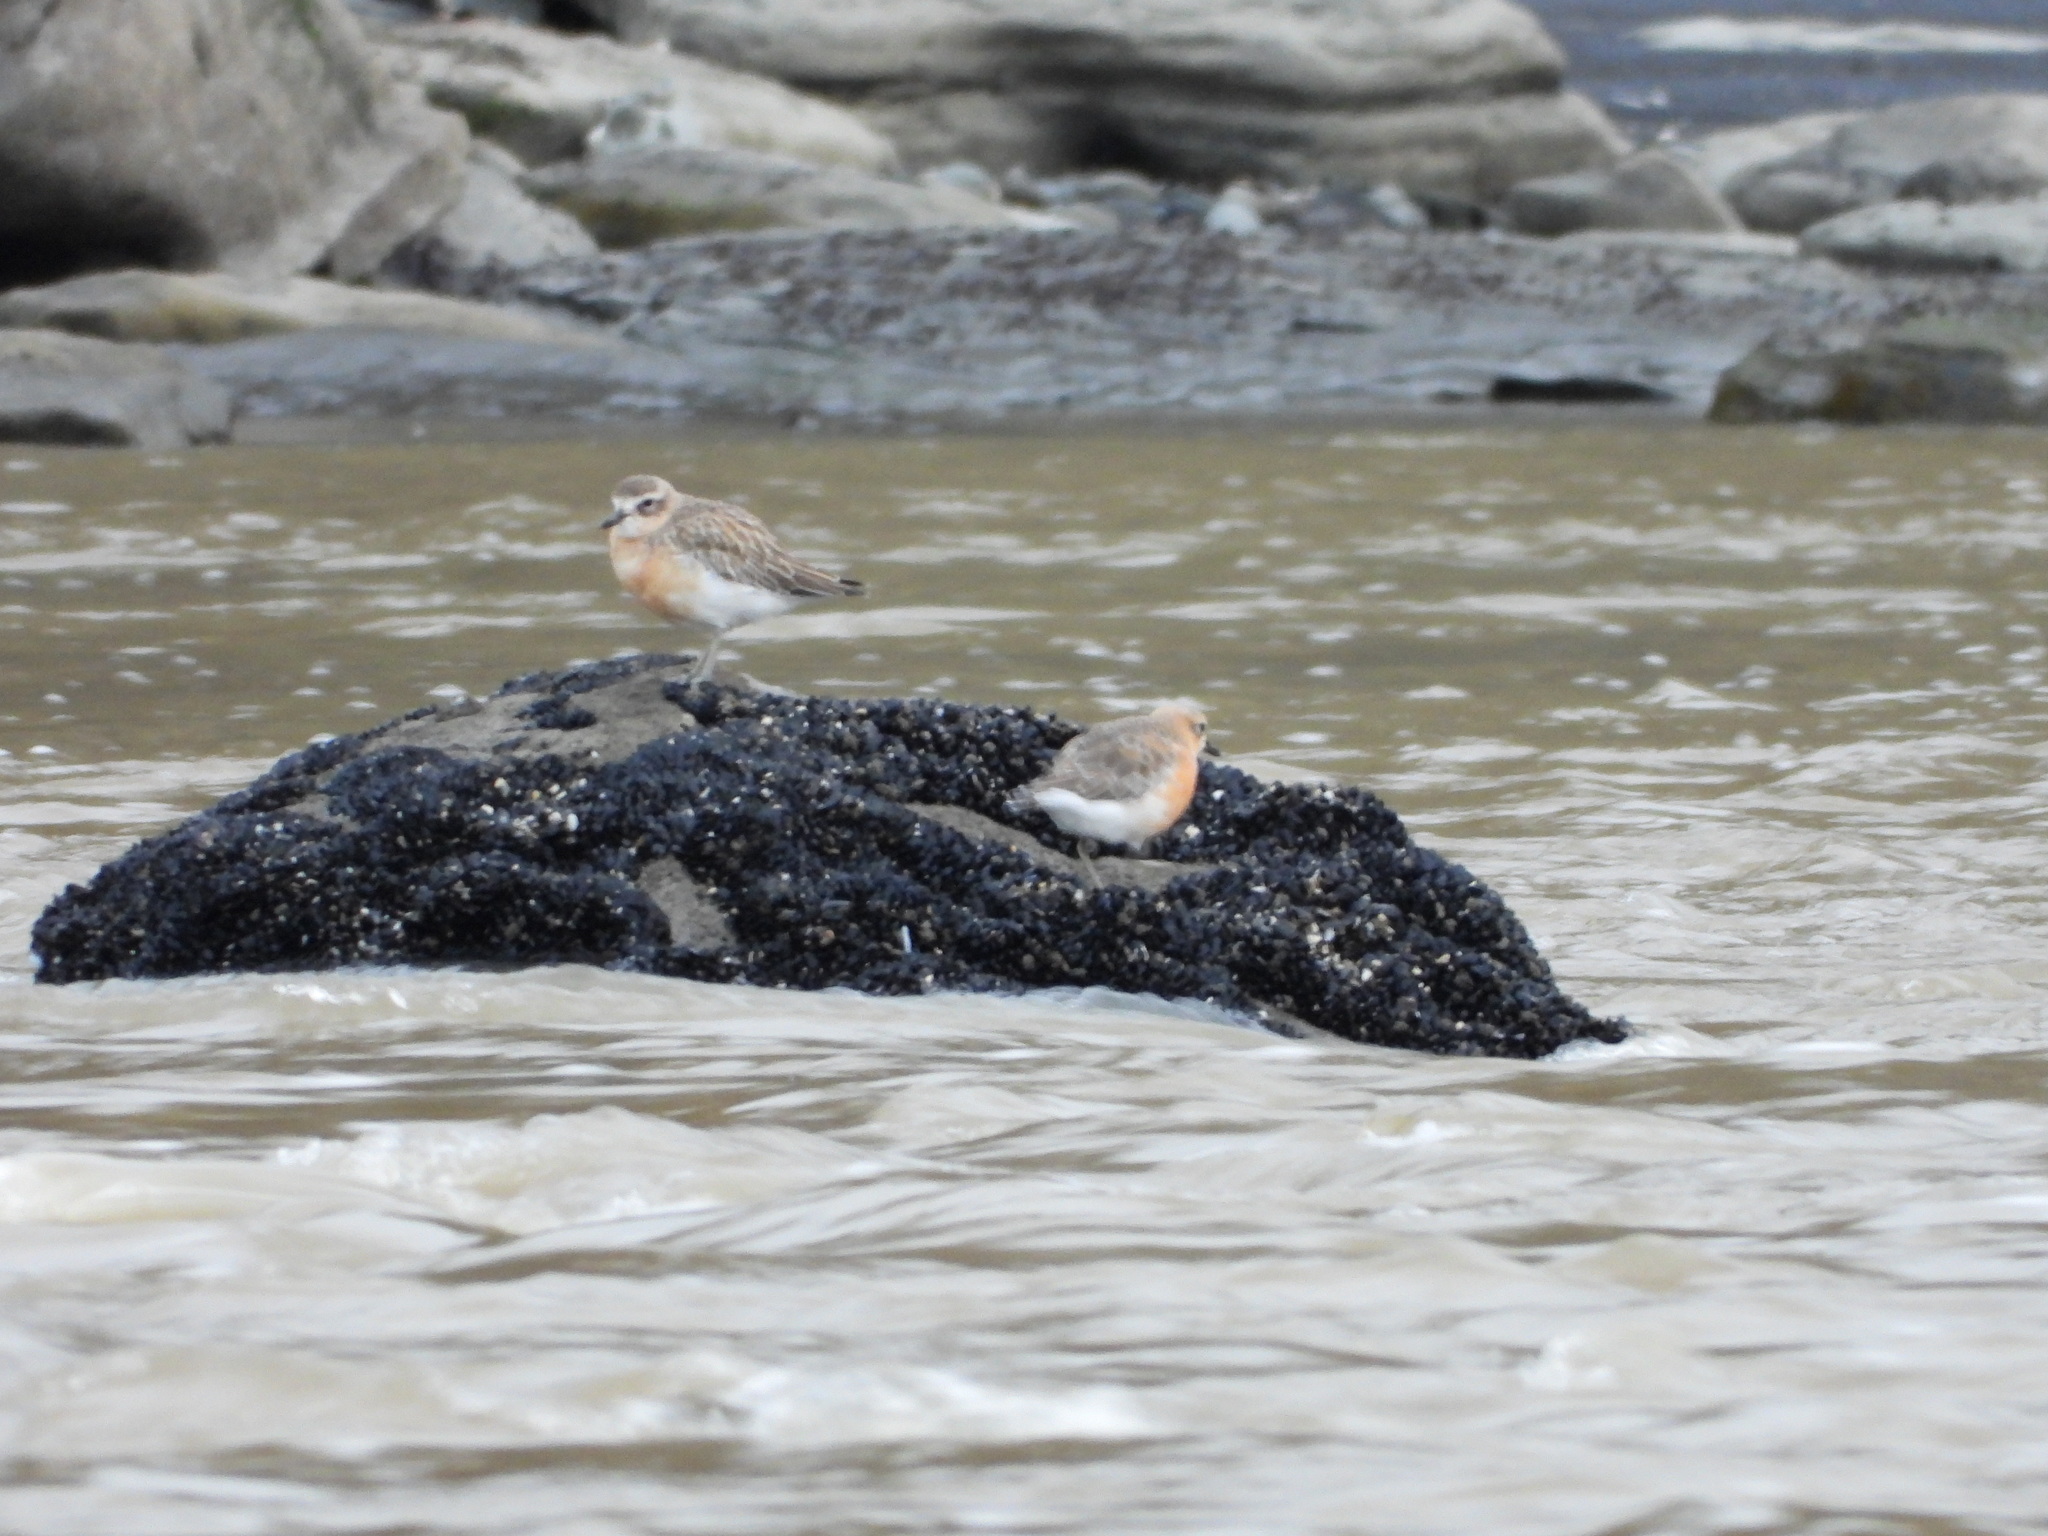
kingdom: Animalia
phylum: Chordata
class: Aves
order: Charadriiformes
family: Charadriidae
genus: Anarhynchus
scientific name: Anarhynchus
